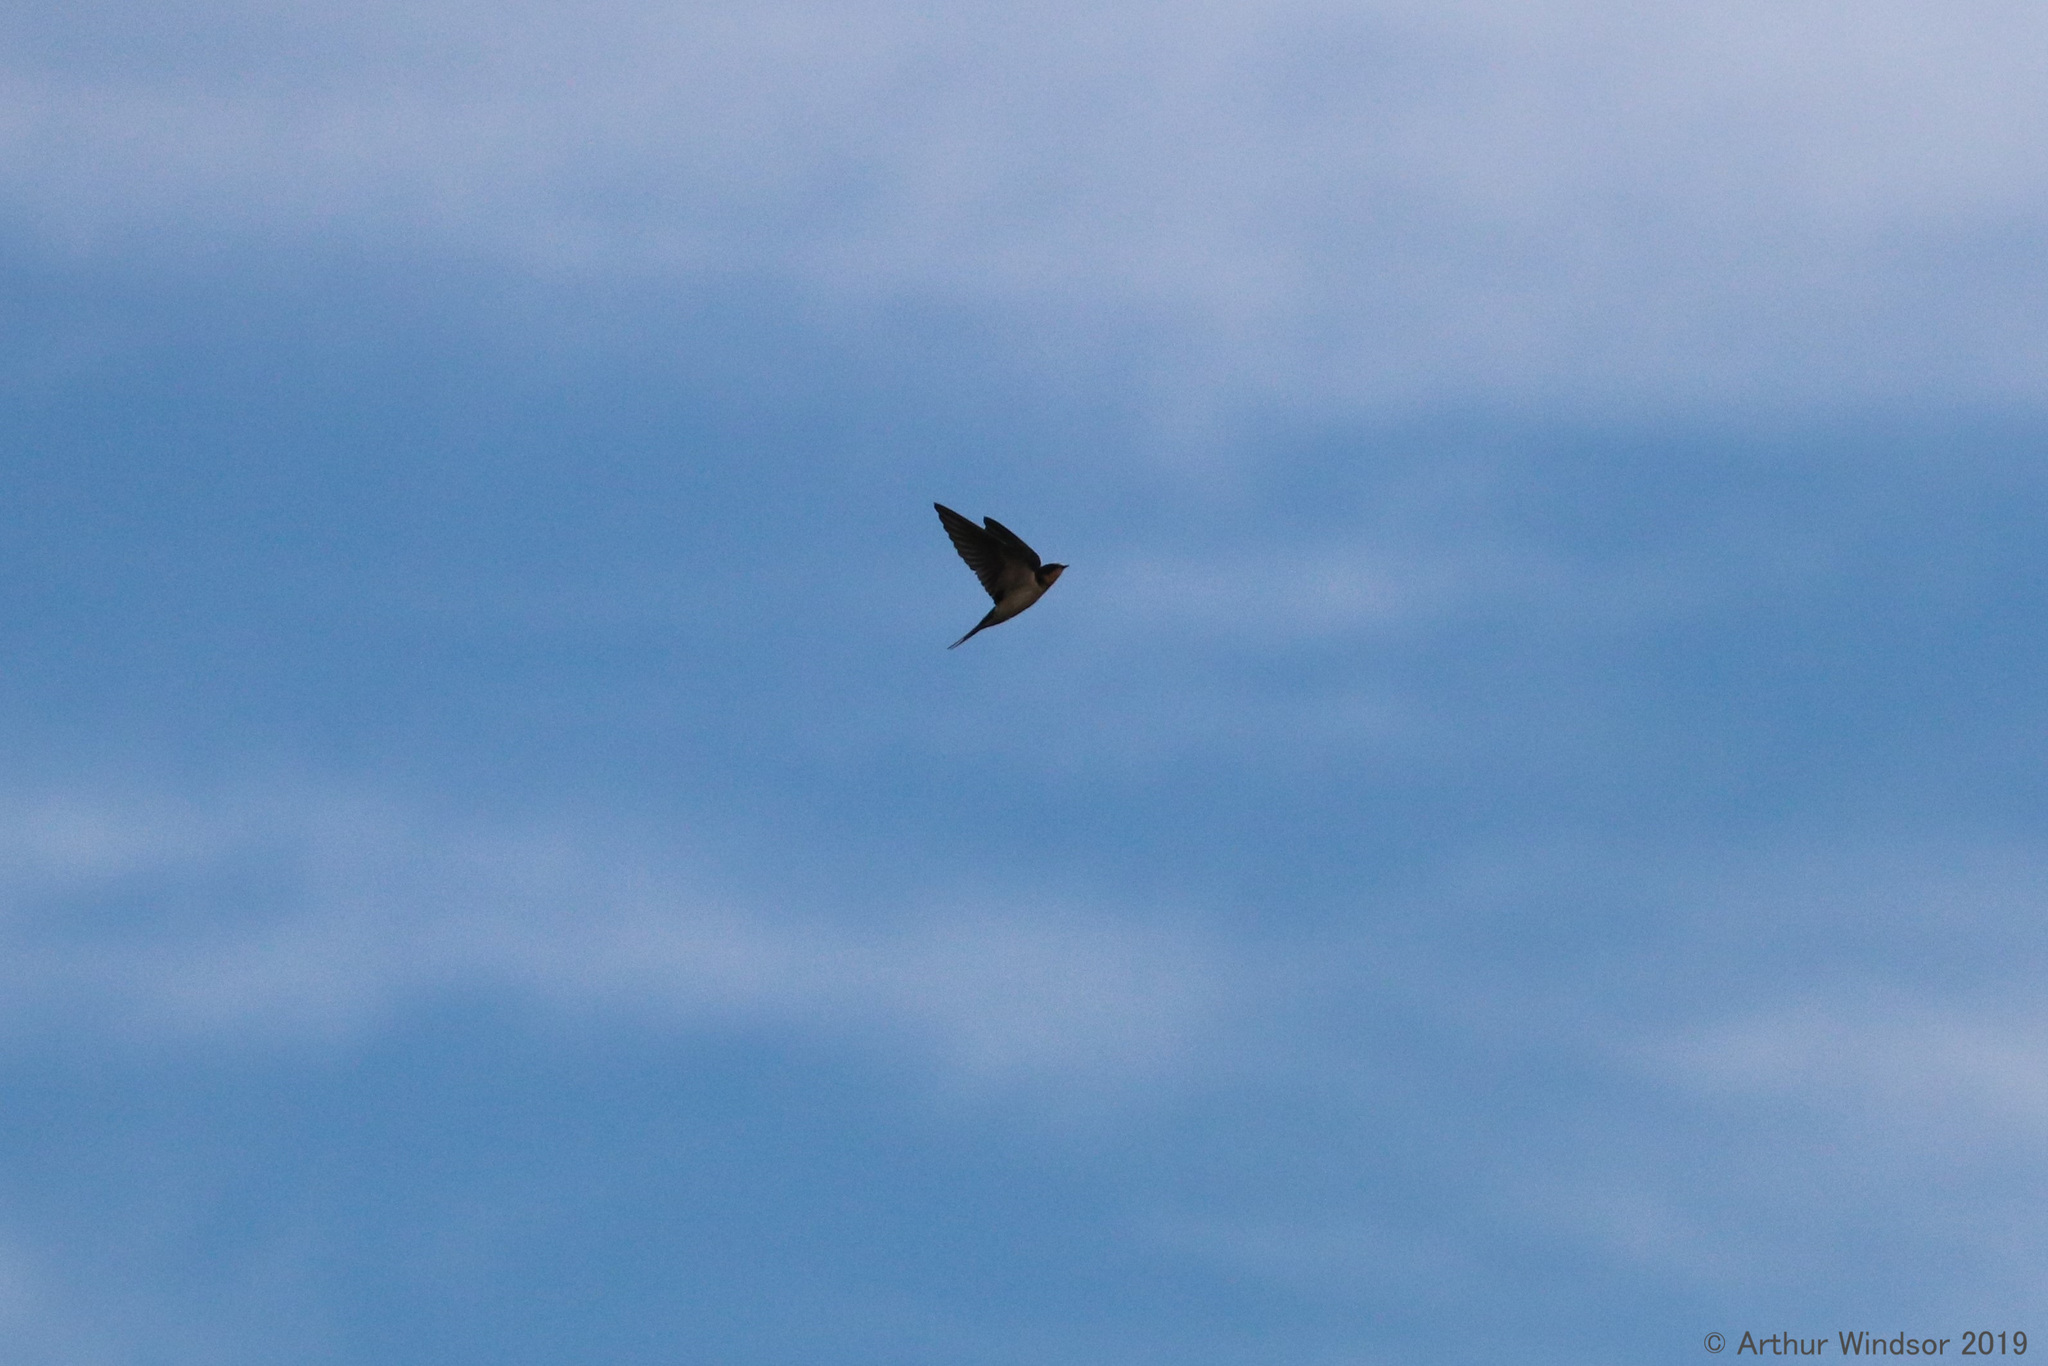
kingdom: Animalia
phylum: Chordata
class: Aves
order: Passeriformes
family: Hirundinidae
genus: Hirundo
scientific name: Hirundo rustica
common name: Barn swallow
